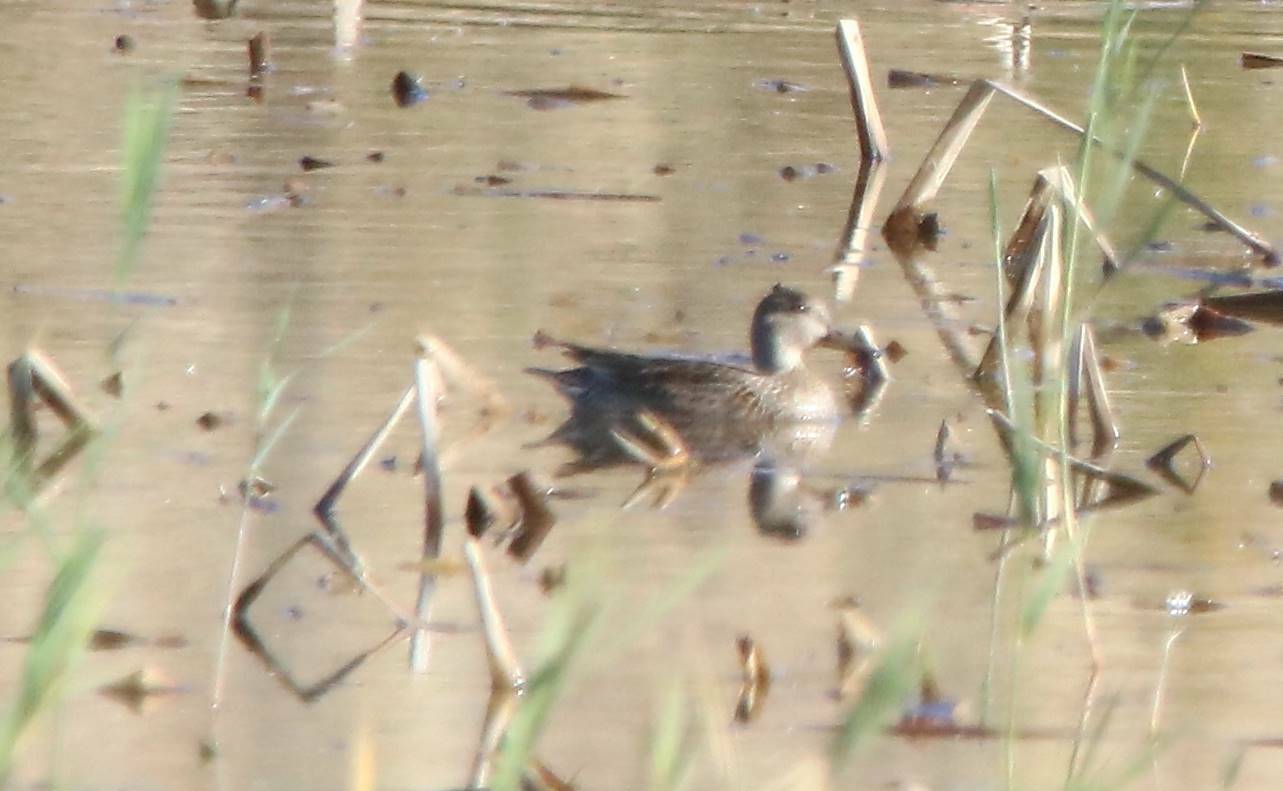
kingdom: Animalia
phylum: Chordata
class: Aves
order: Anseriformes
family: Anatidae
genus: Anas
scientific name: Anas crecca
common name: Eurasian teal
